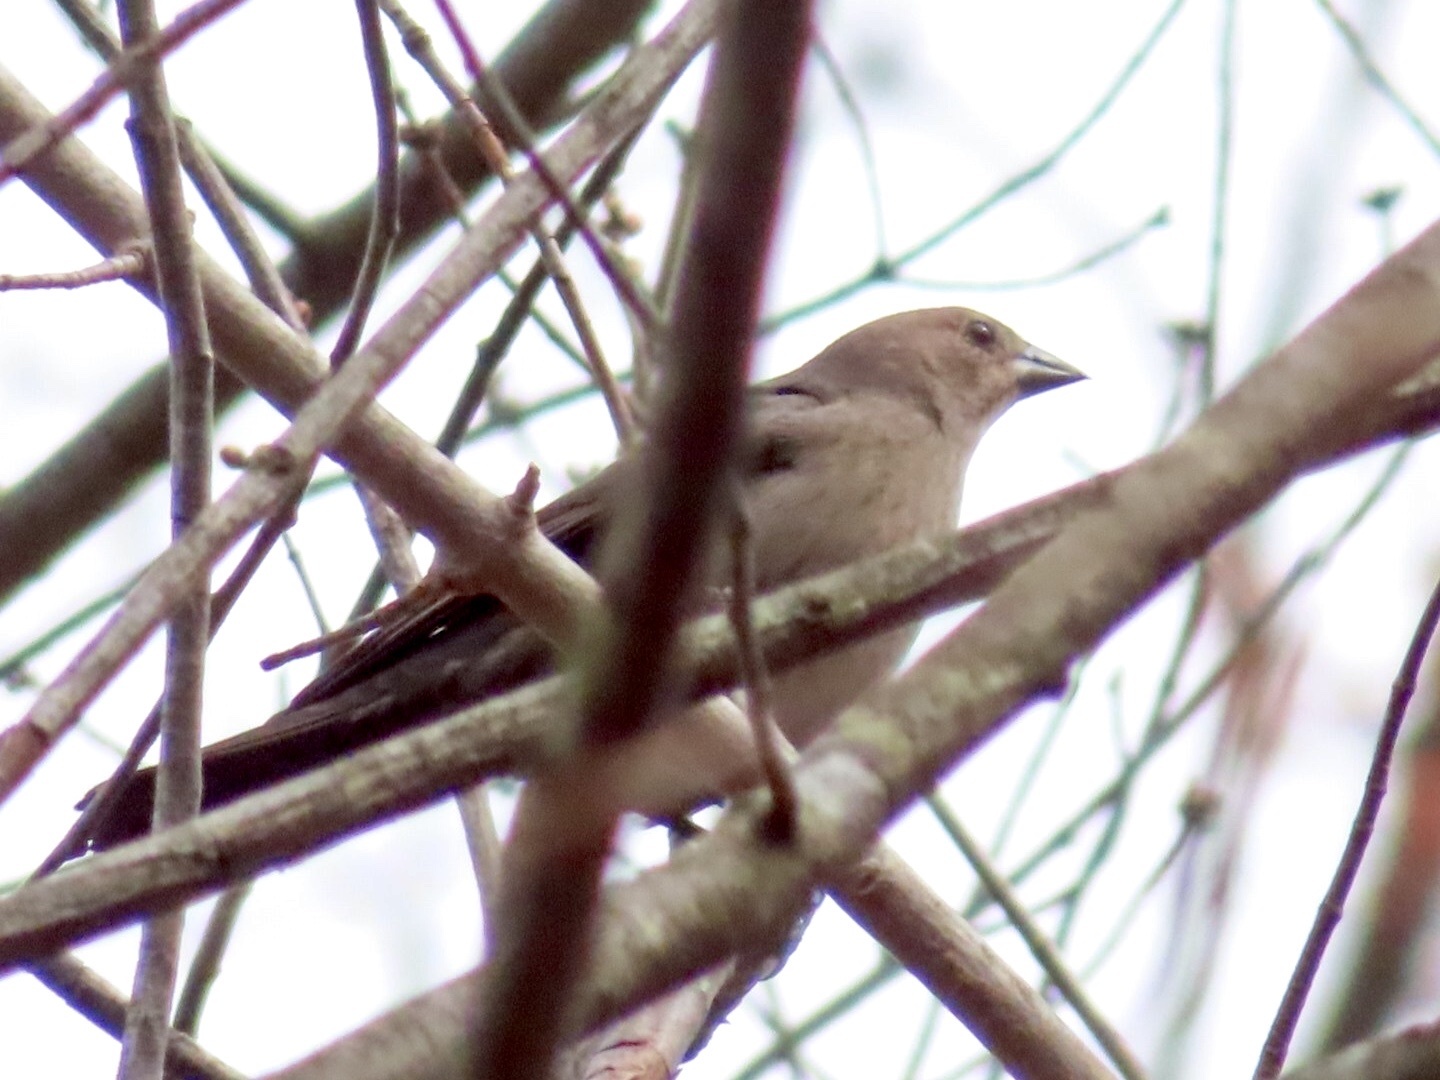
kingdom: Animalia
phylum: Chordata
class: Aves
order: Passeriformes
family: Icteridae
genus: Molothrus
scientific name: Molothrus ater
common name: Brown-headed cowbird
